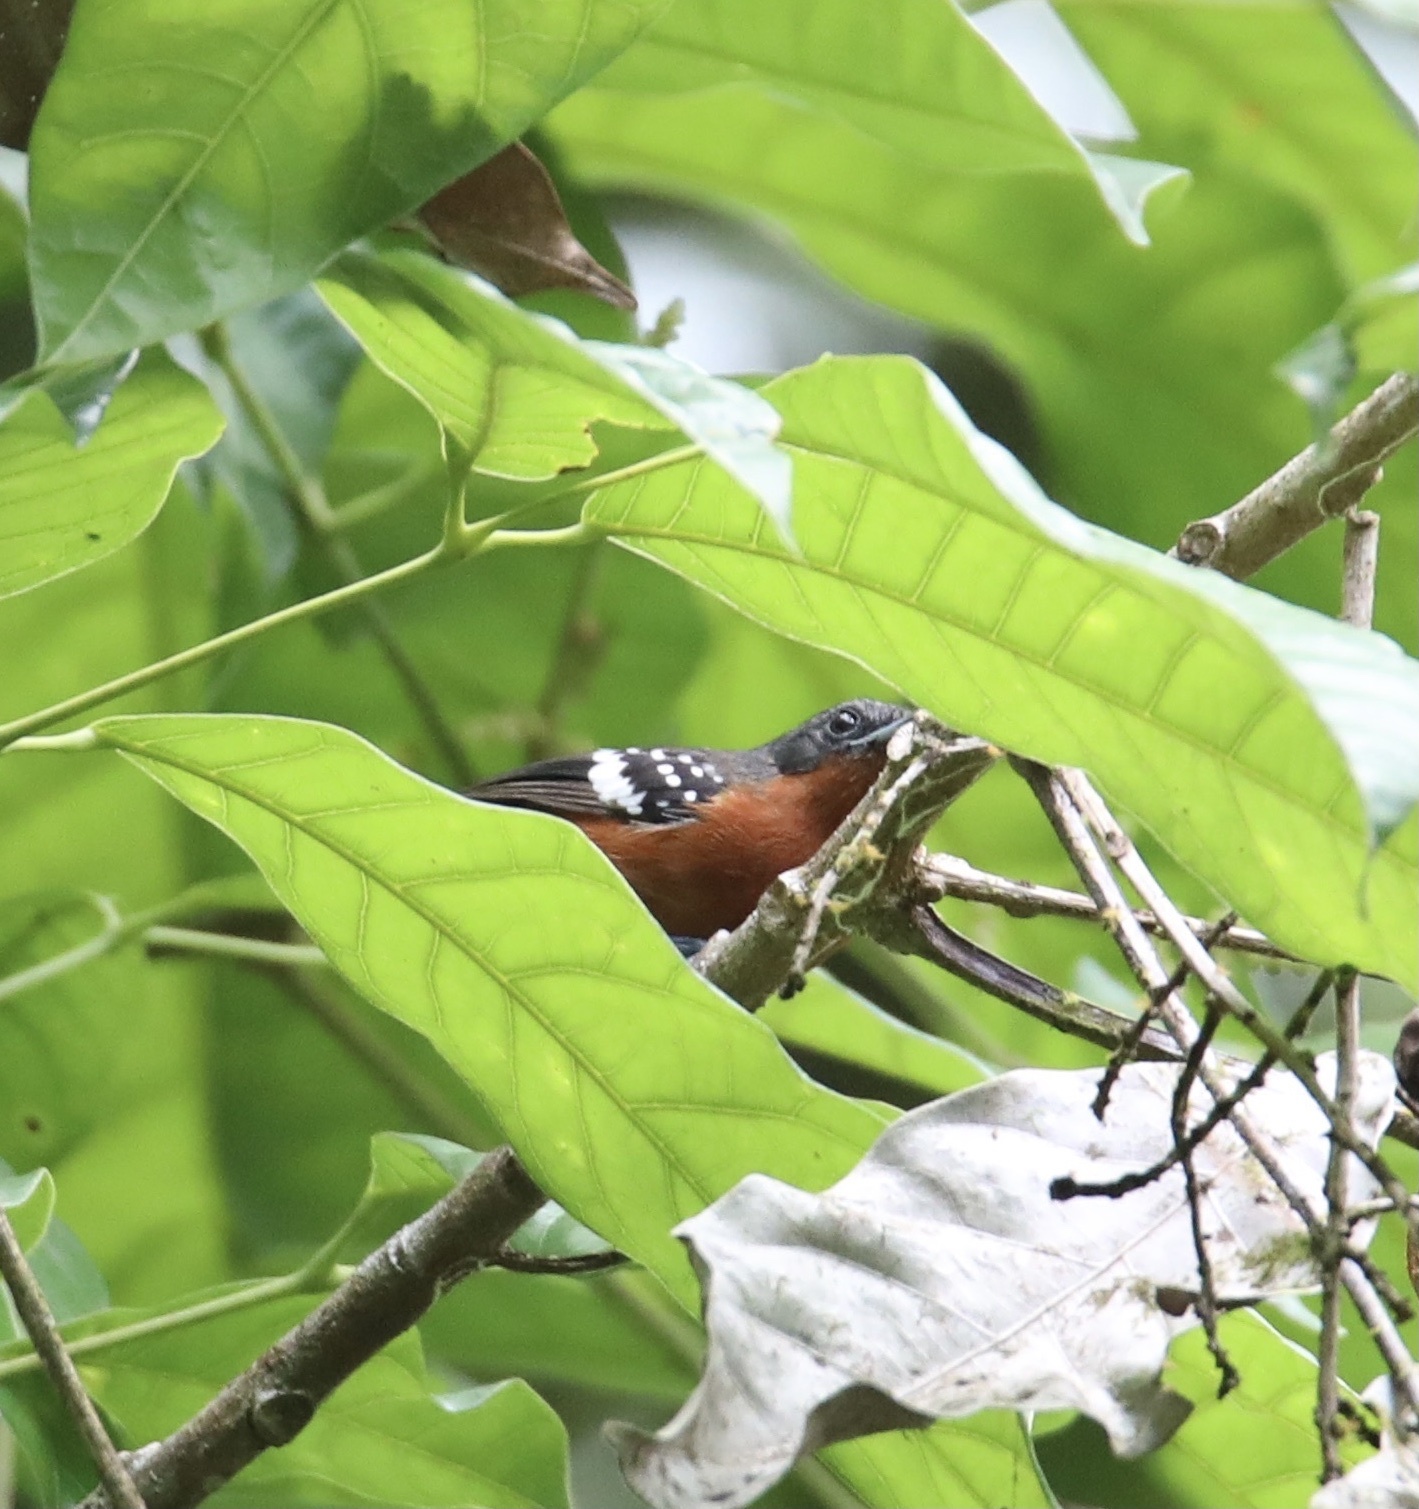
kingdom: Animalia
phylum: Chordata
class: Aves
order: Passeriformes
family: Thamnophilidae
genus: Microrhopias
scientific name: Microrhopias quixensis
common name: Dot-winged antwren
